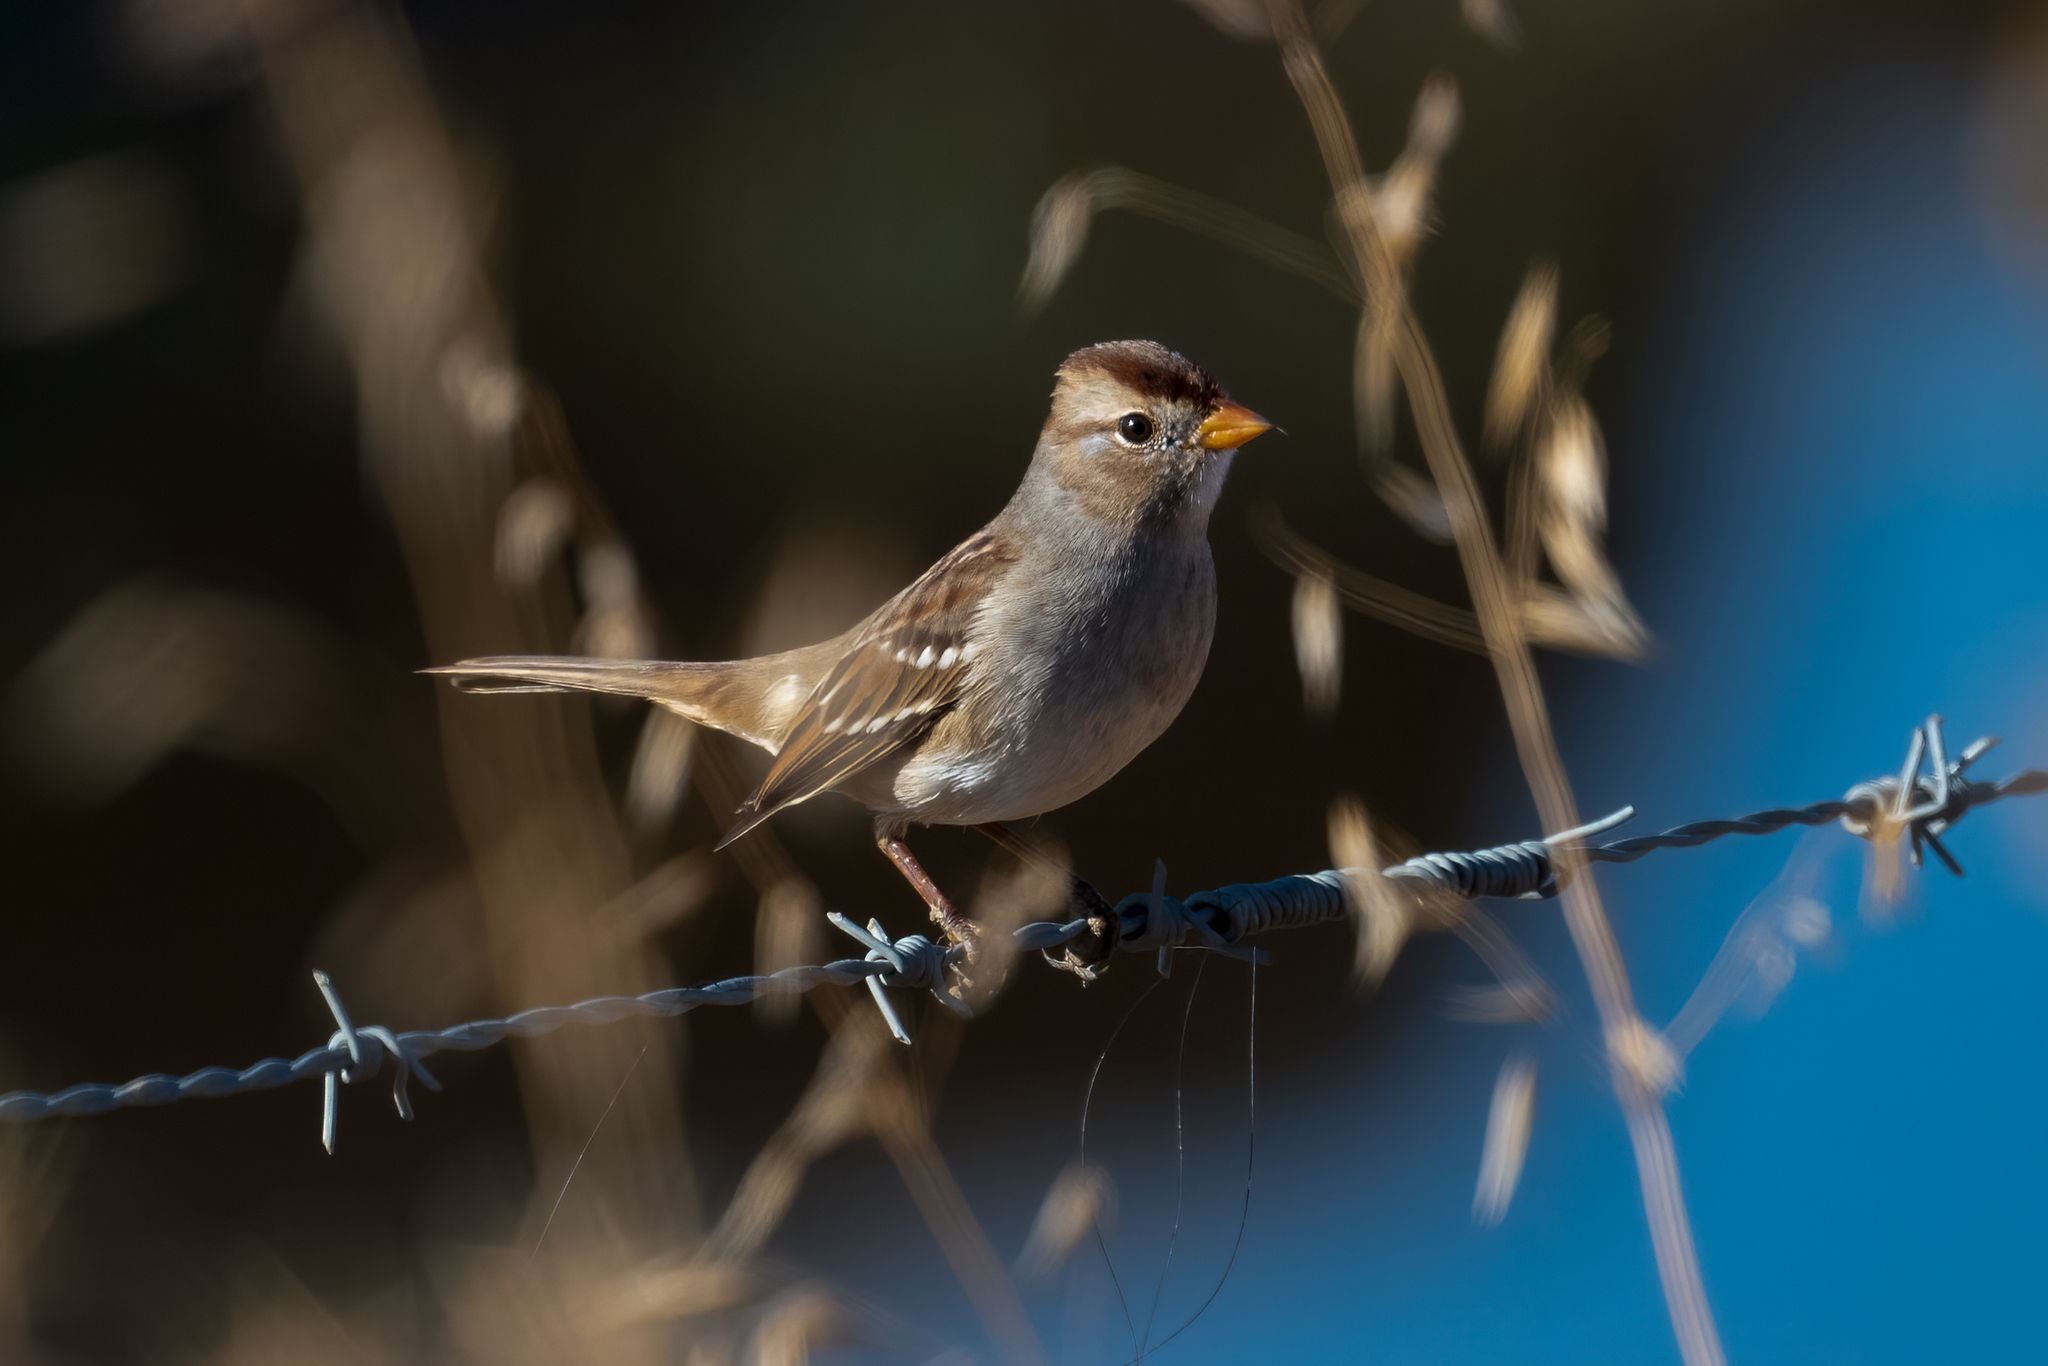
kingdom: Animalia
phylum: Chordata
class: Aves
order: Passeriformes
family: Passerellidae
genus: Zonotrichia
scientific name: Zonotrichia leucophrys
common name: White-crowned sparrow
